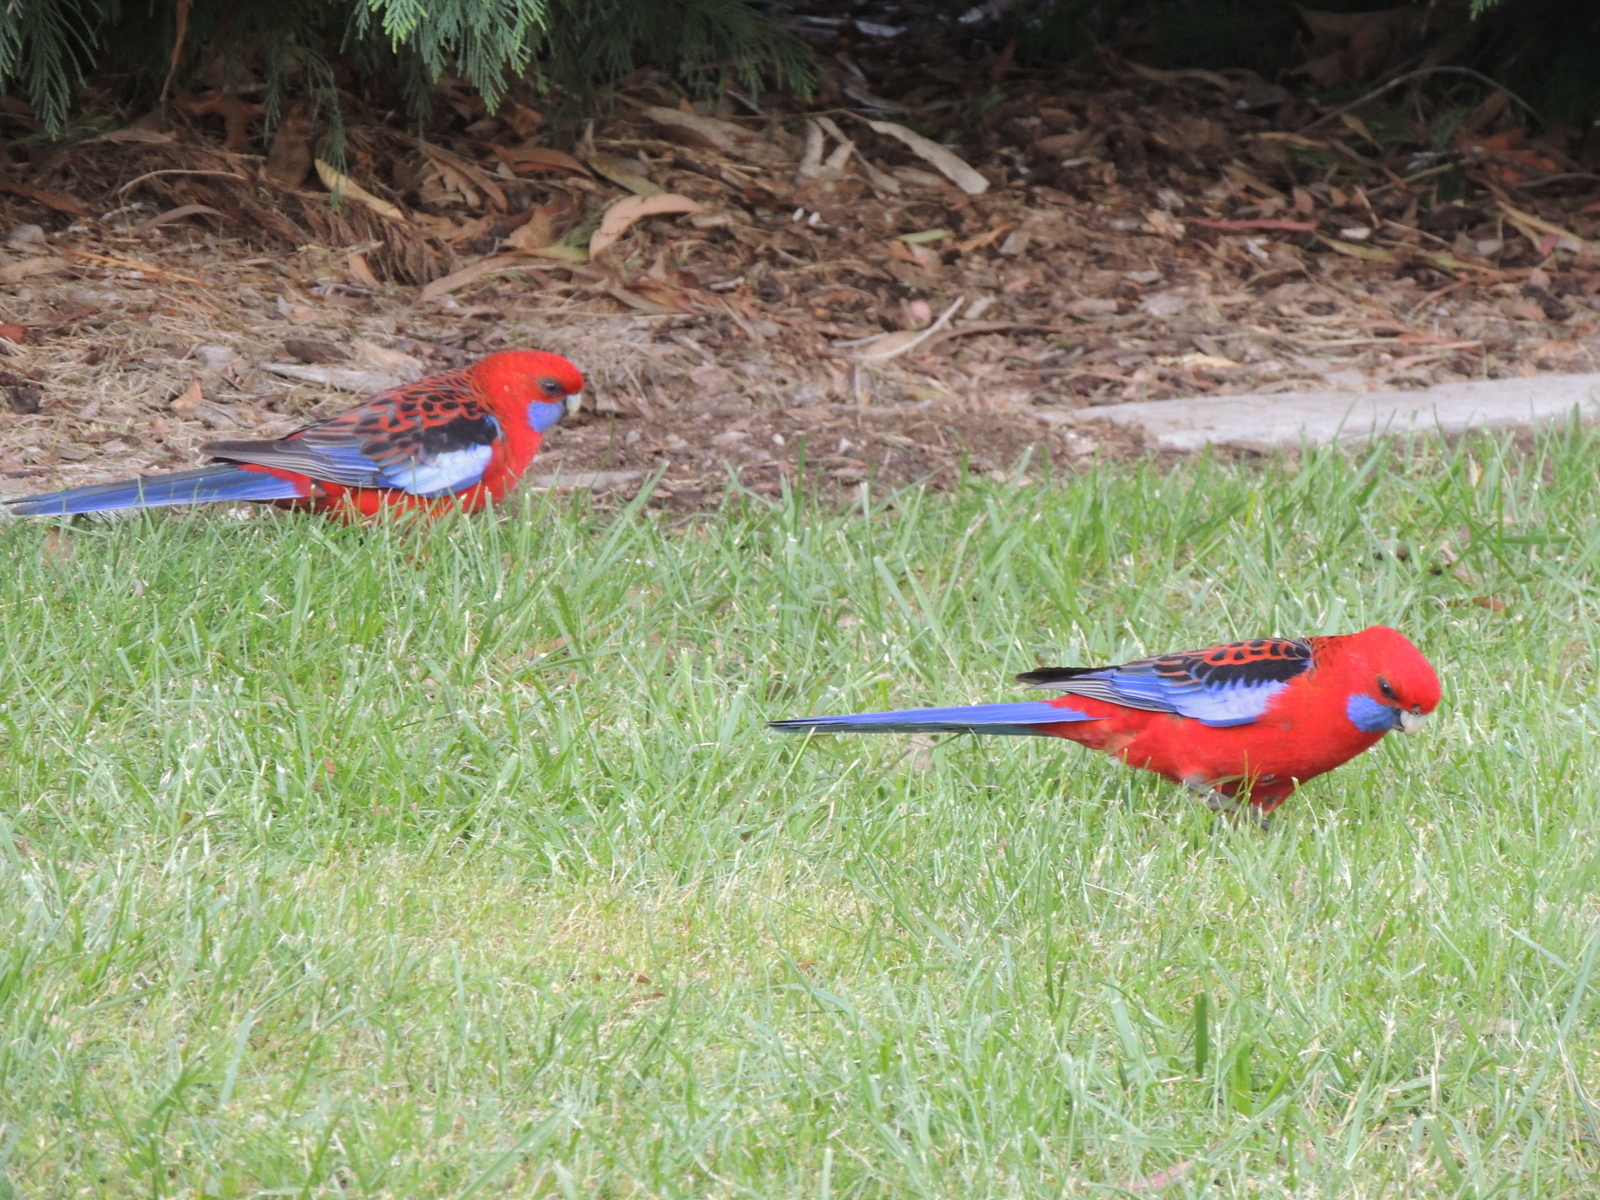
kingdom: Animalia
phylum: Chordata
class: Aves
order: Psittaciformes
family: Psittacidae
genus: Platycercus
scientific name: Platycercus elegans
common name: Crimson rosella
